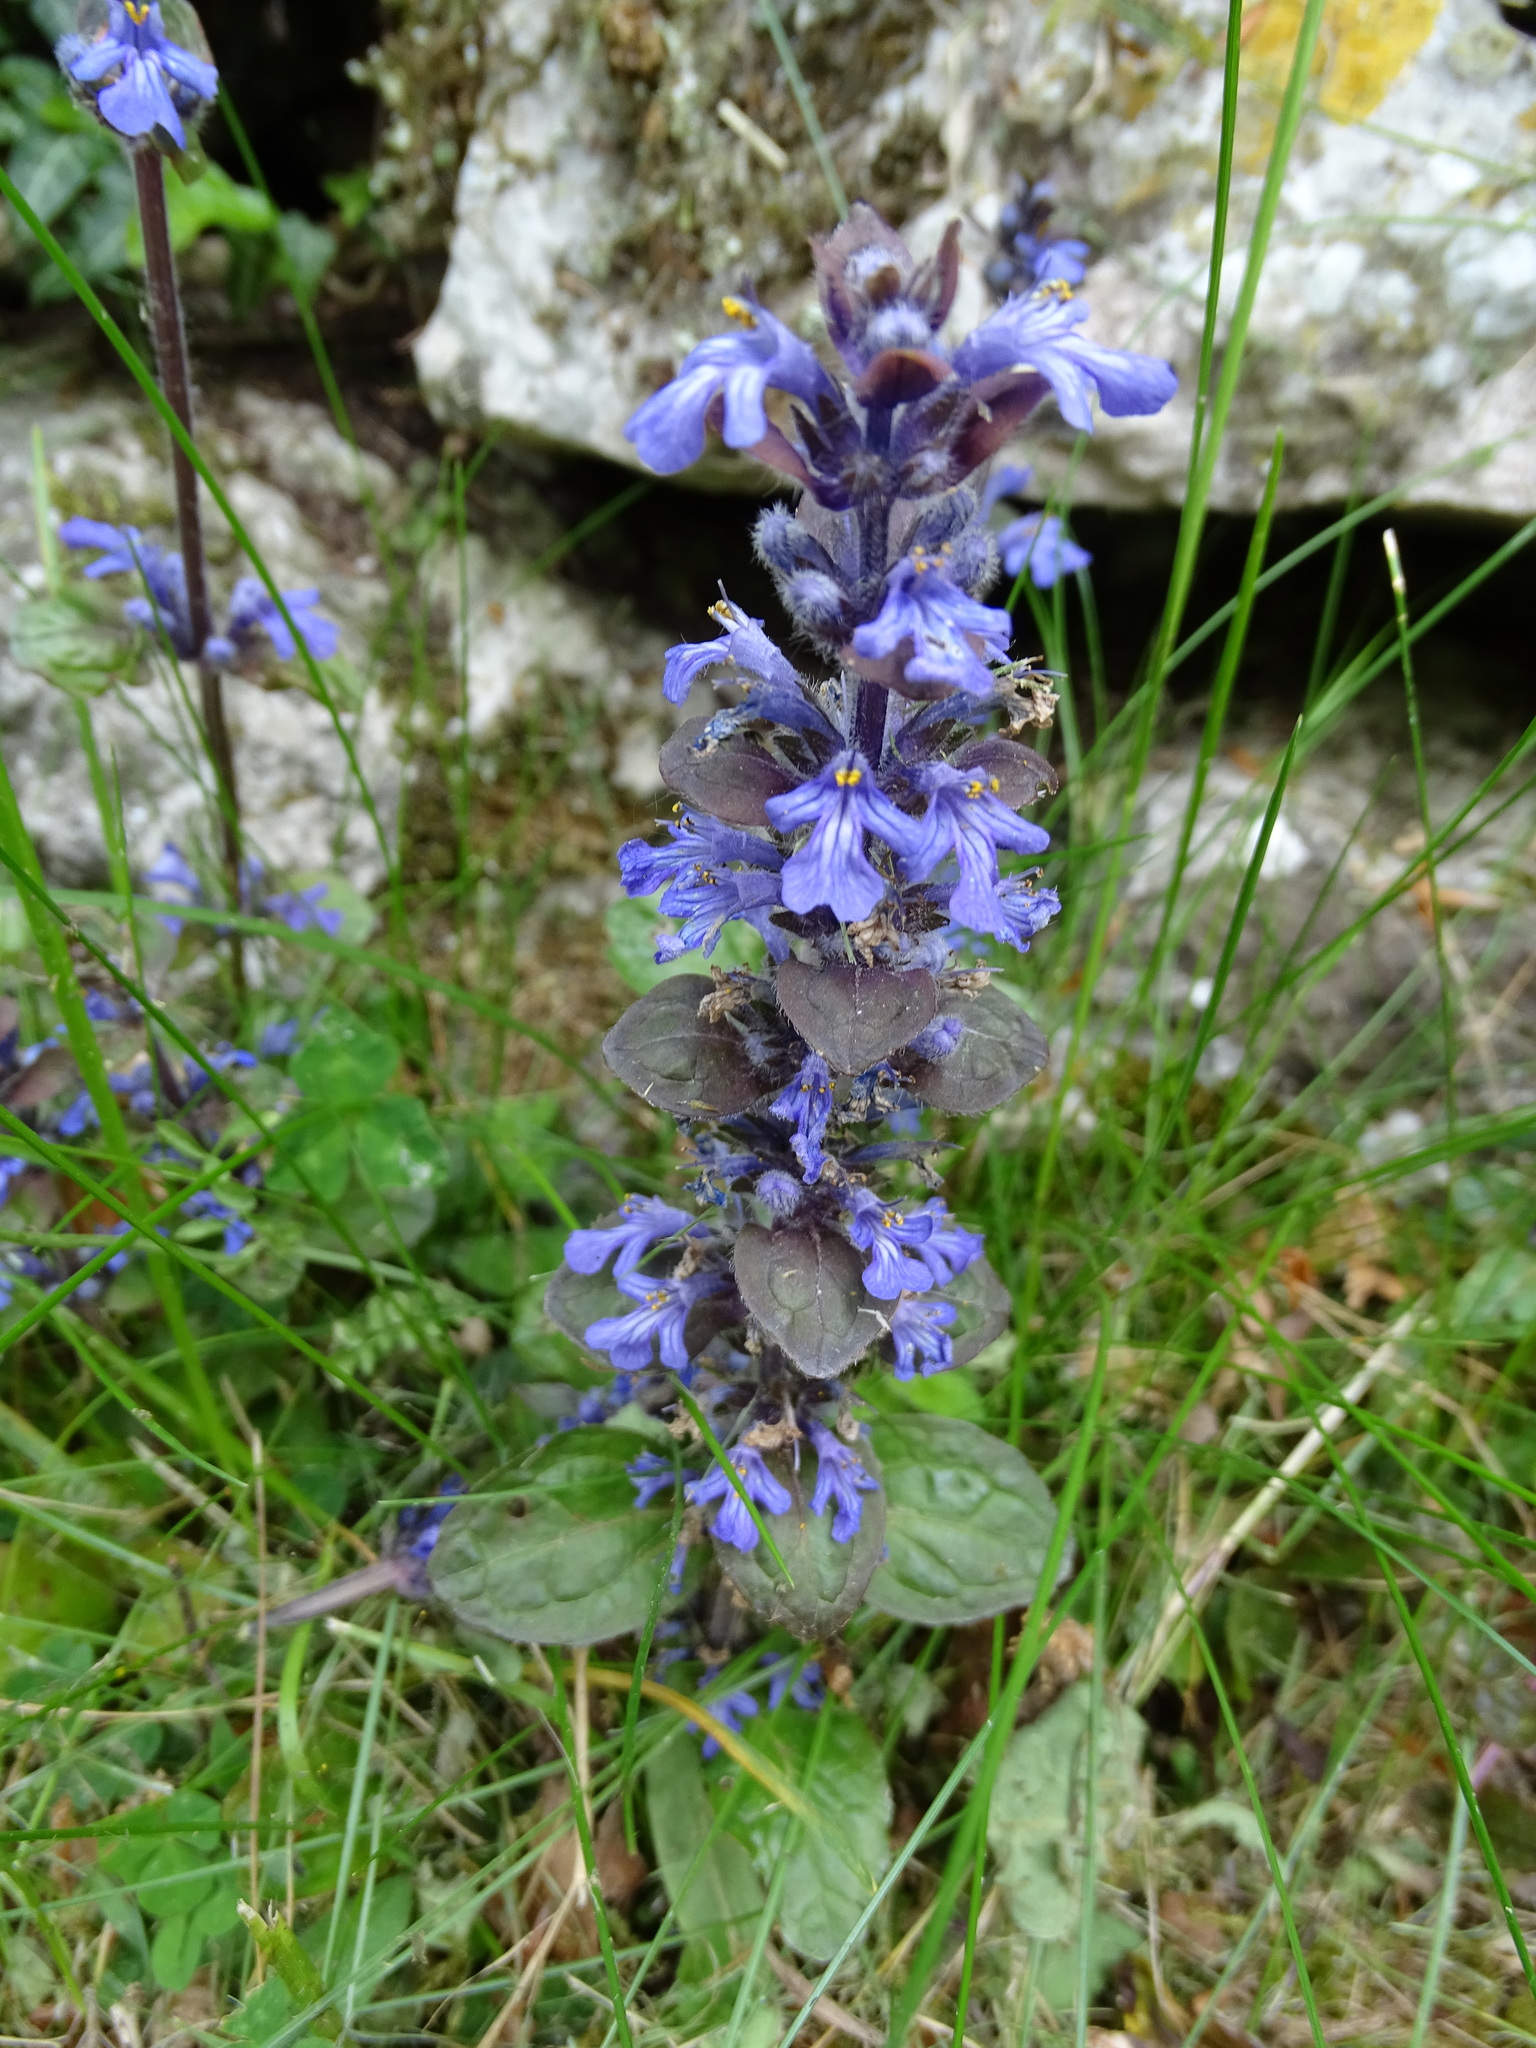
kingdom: Plantae
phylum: Tracheophyta
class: Magnoliopsida
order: Lamiales
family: Lamiaceae
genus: Ajuga
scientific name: Ajuga reptans
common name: Bugle
